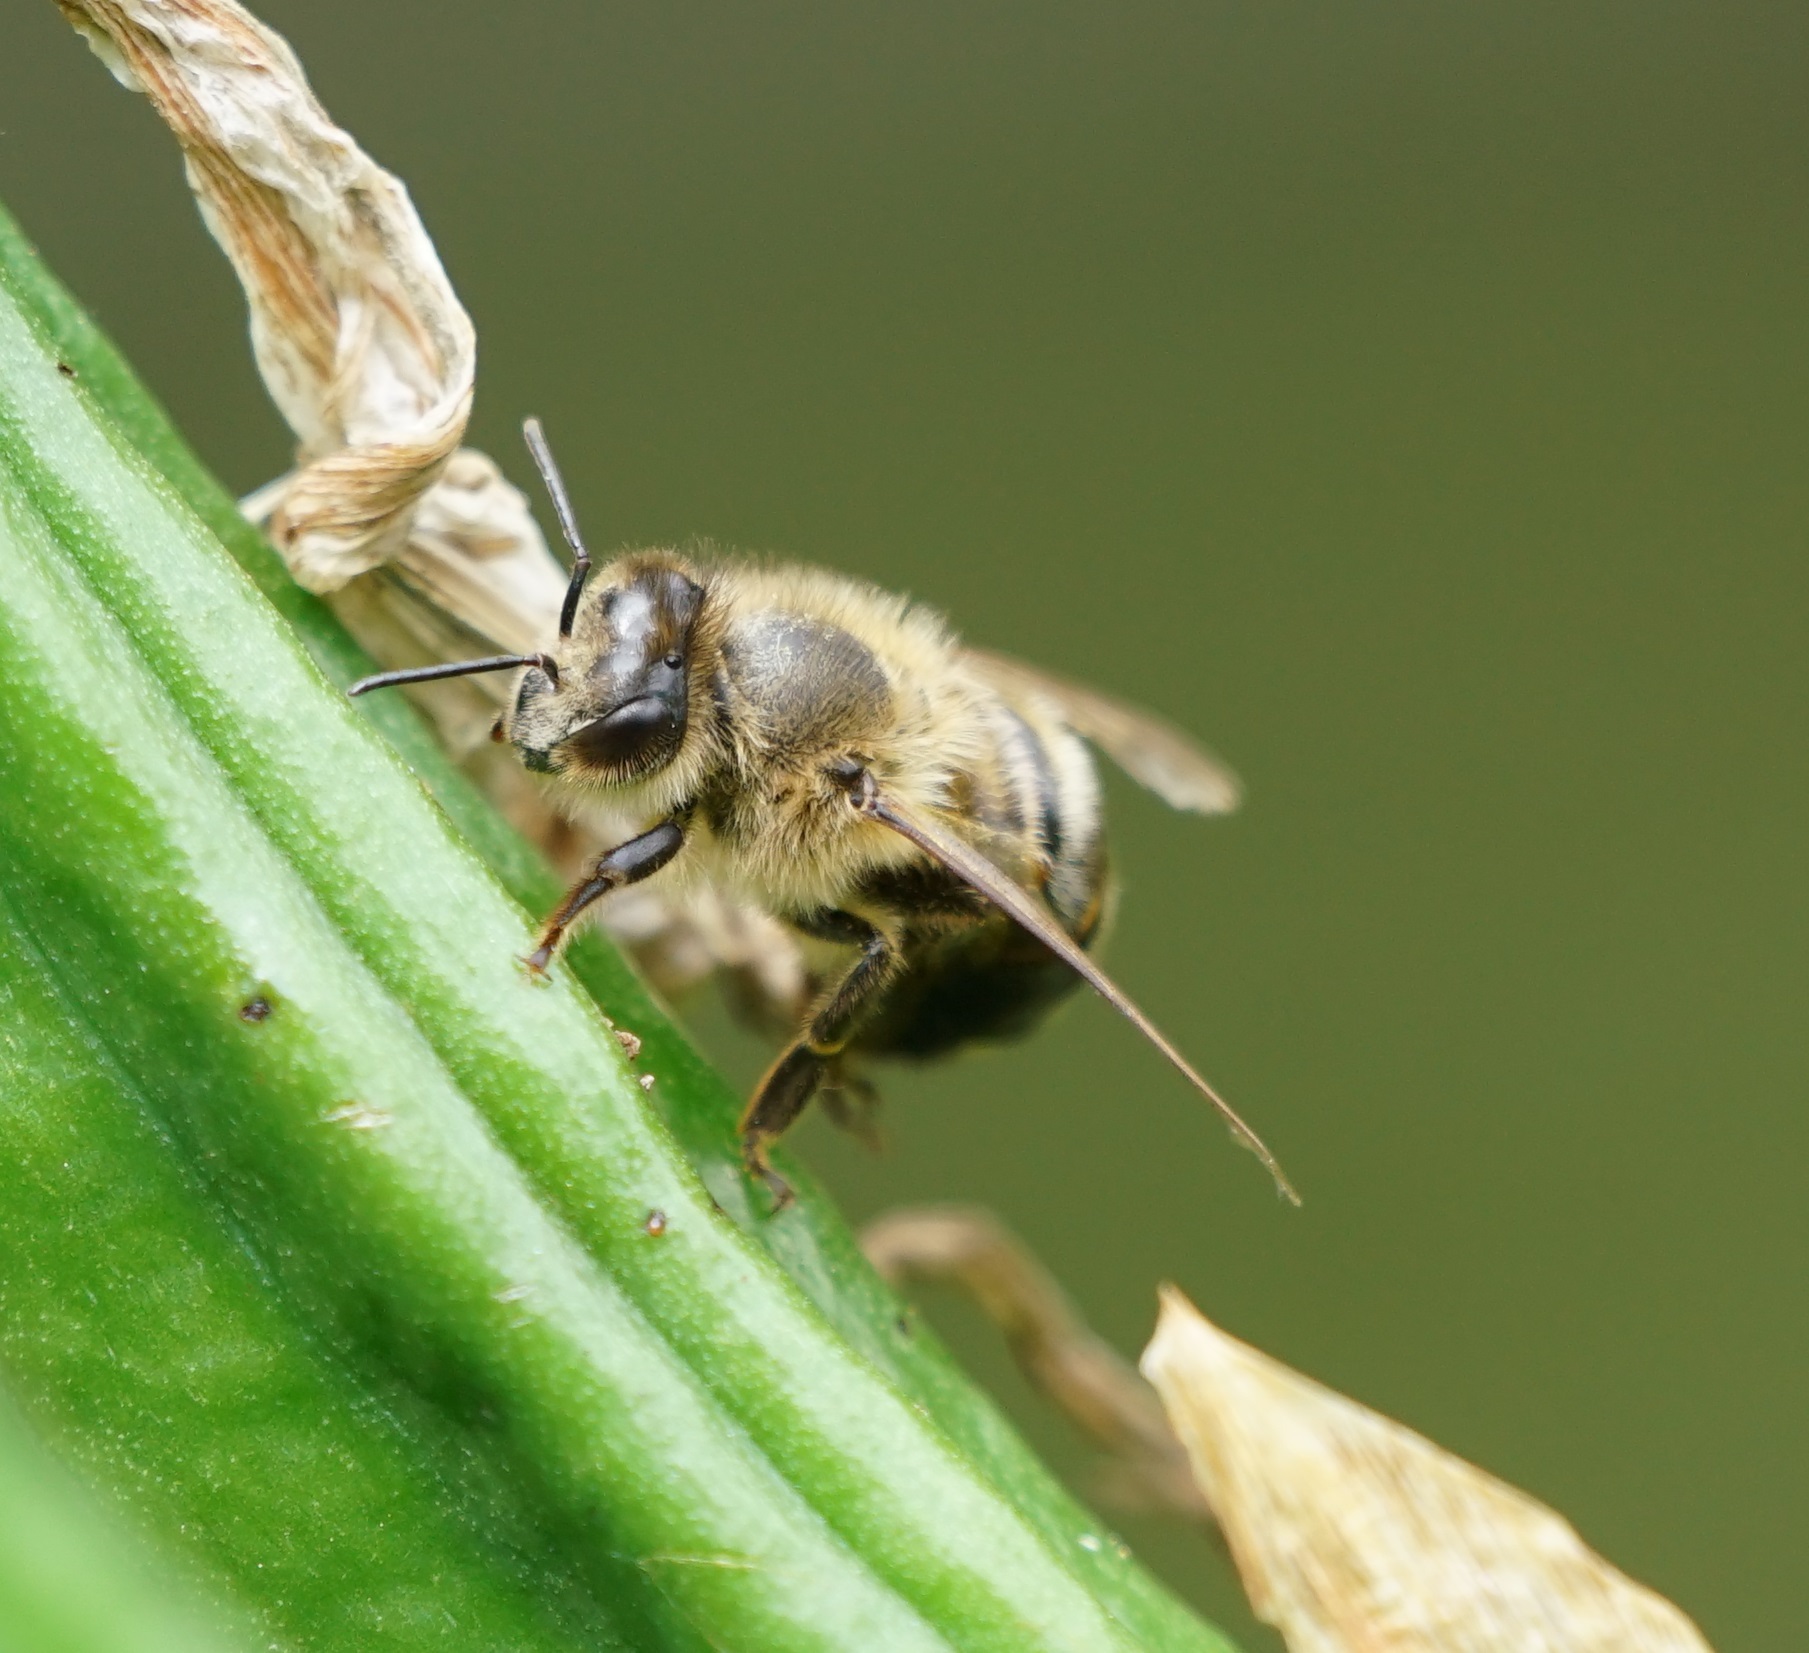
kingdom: Animalia
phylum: Arthropoda
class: Insecta
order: Hymenoptera
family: Apidae
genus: Apis
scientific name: Apis mellifera
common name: Honey bee
